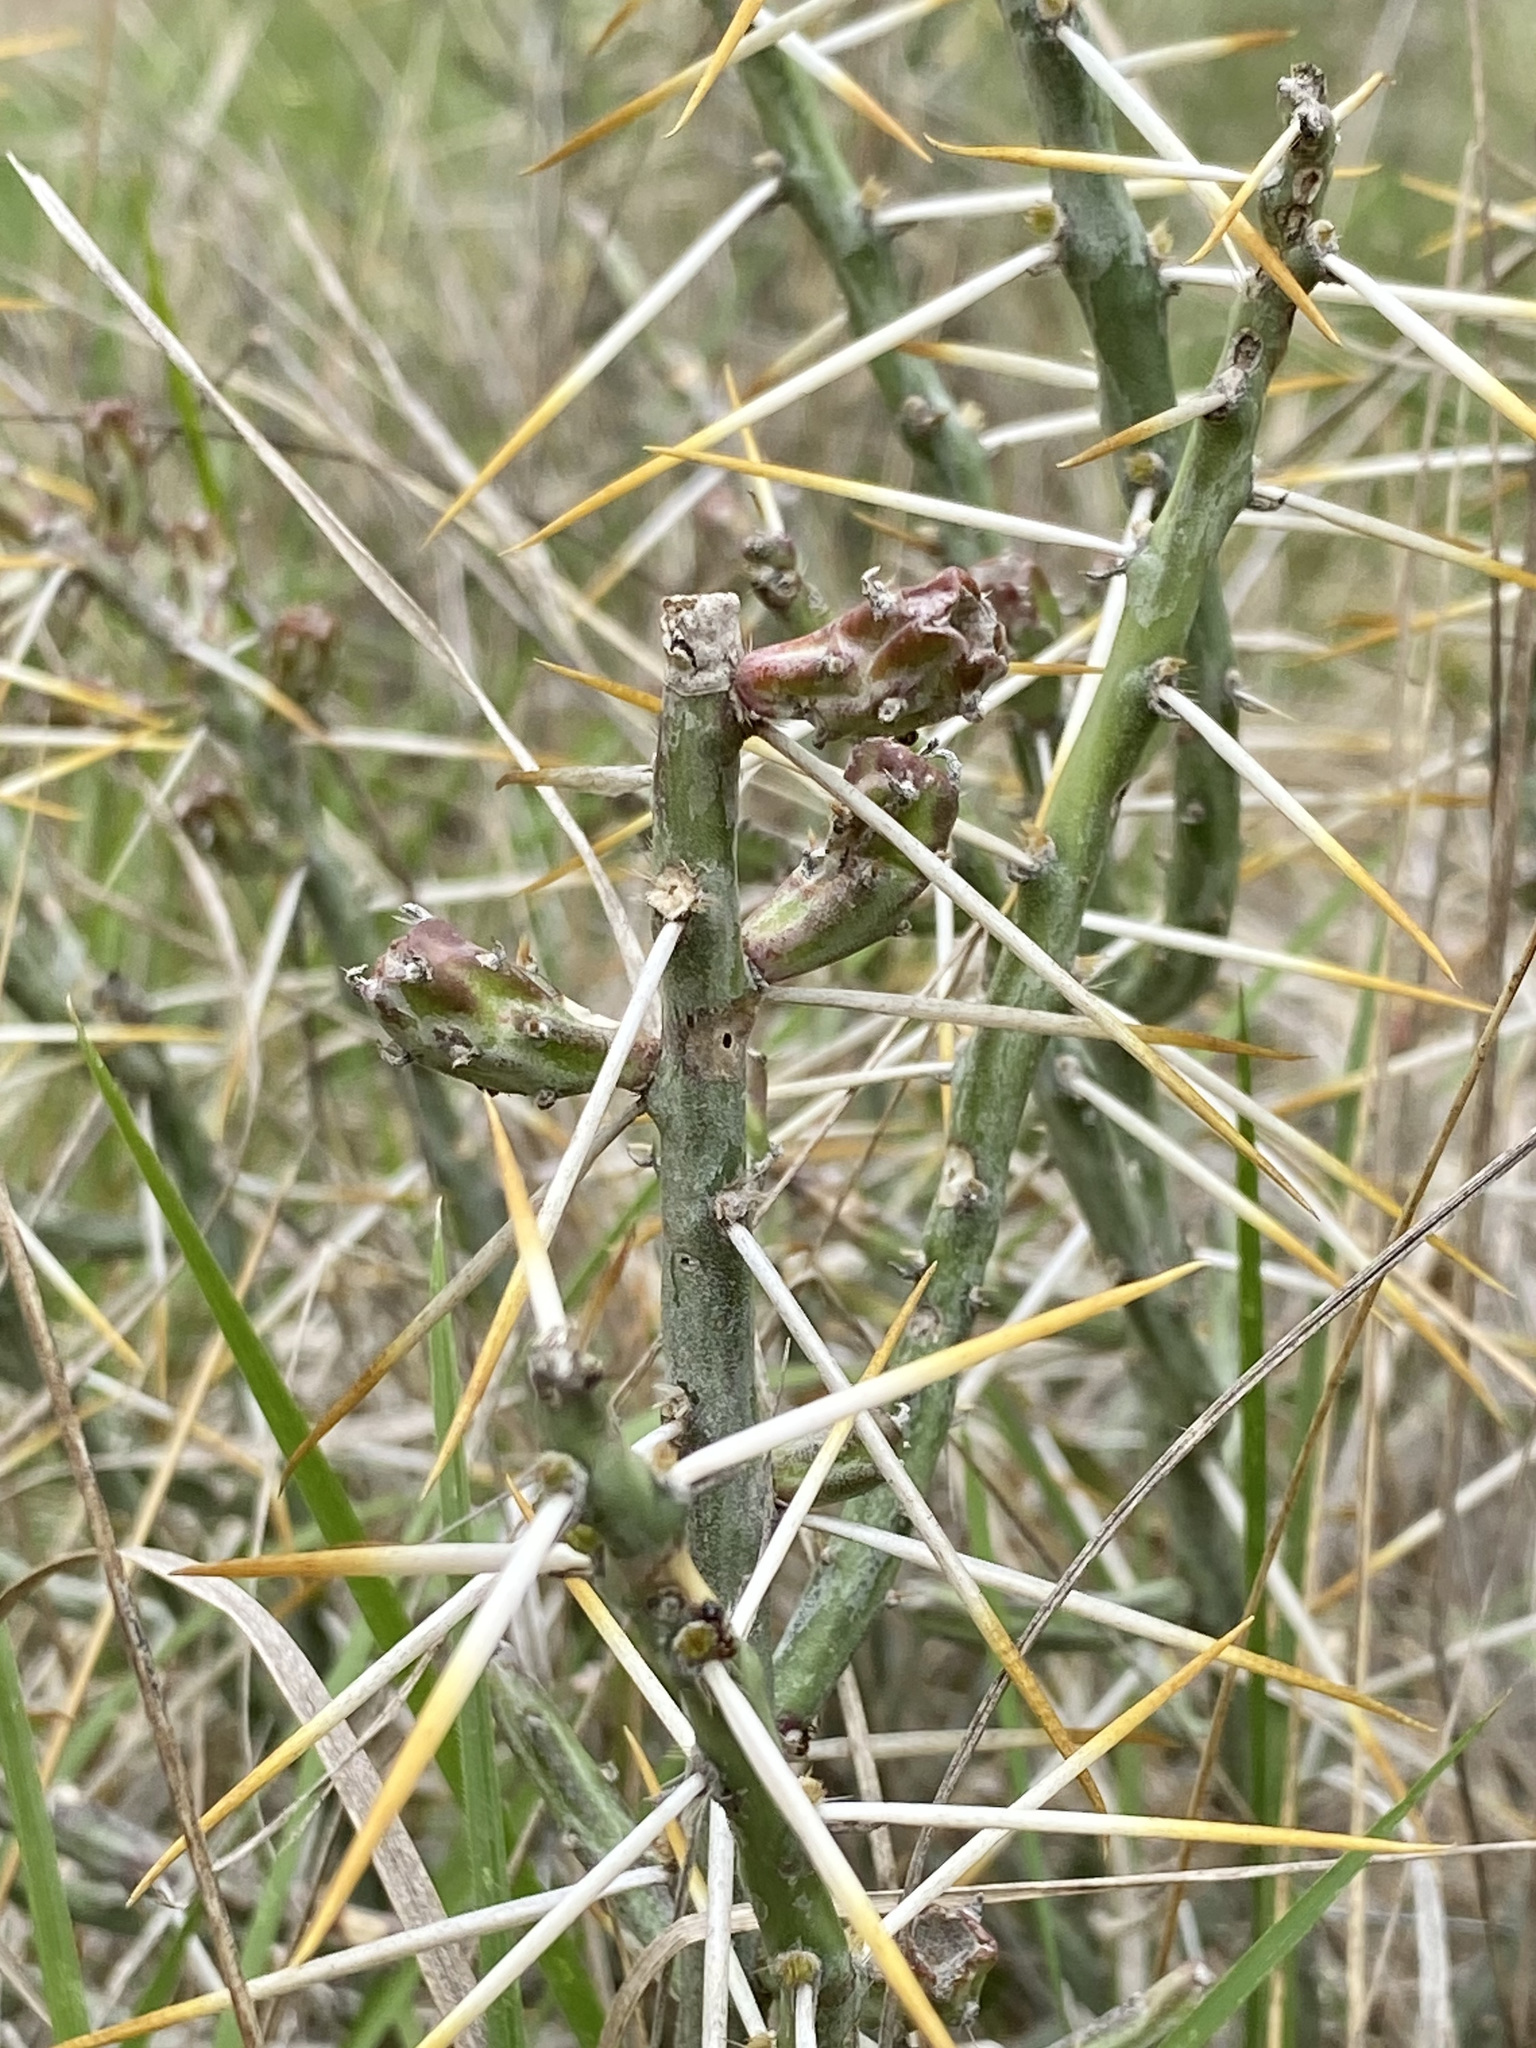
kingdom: Plantae
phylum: Tracheophyta
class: Magnoliopsida
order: Caryophyllales
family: Cactaceae
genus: Cylindropuntia
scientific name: Cylindropuntia leptocaulis
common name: Christmas cactus
